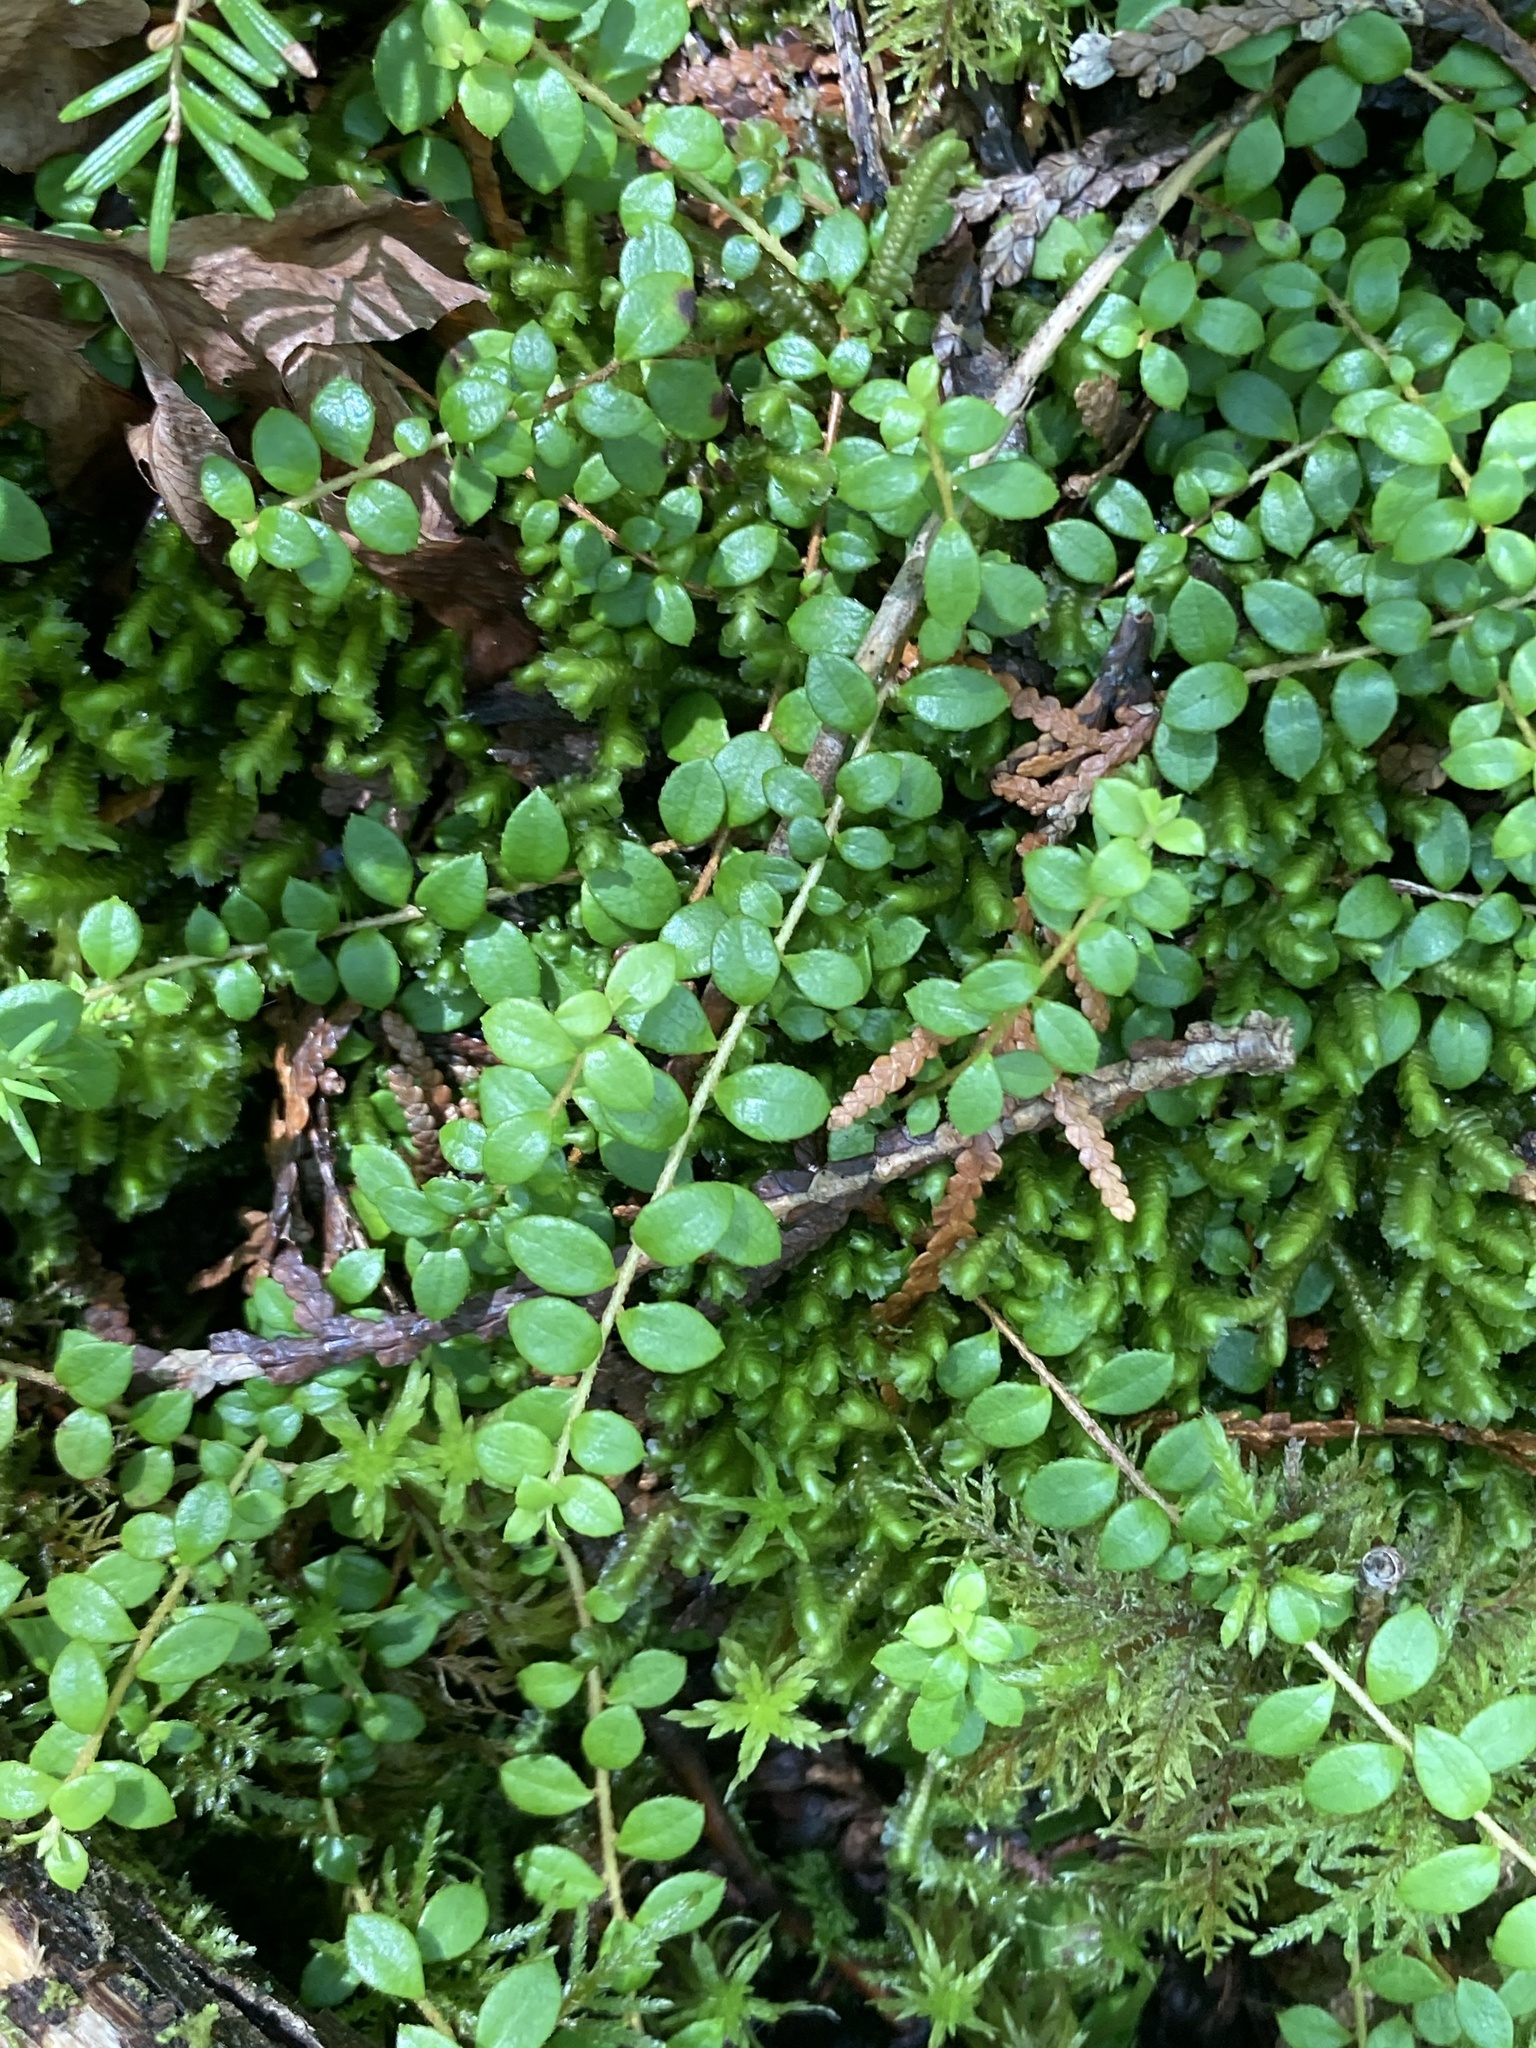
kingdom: Plantae
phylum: Tracheophyta
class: Magnoliopsida
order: Ericales
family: Ericaceae
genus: Gaultheria
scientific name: Gaultheria hispidula
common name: Cancer wintergreen
